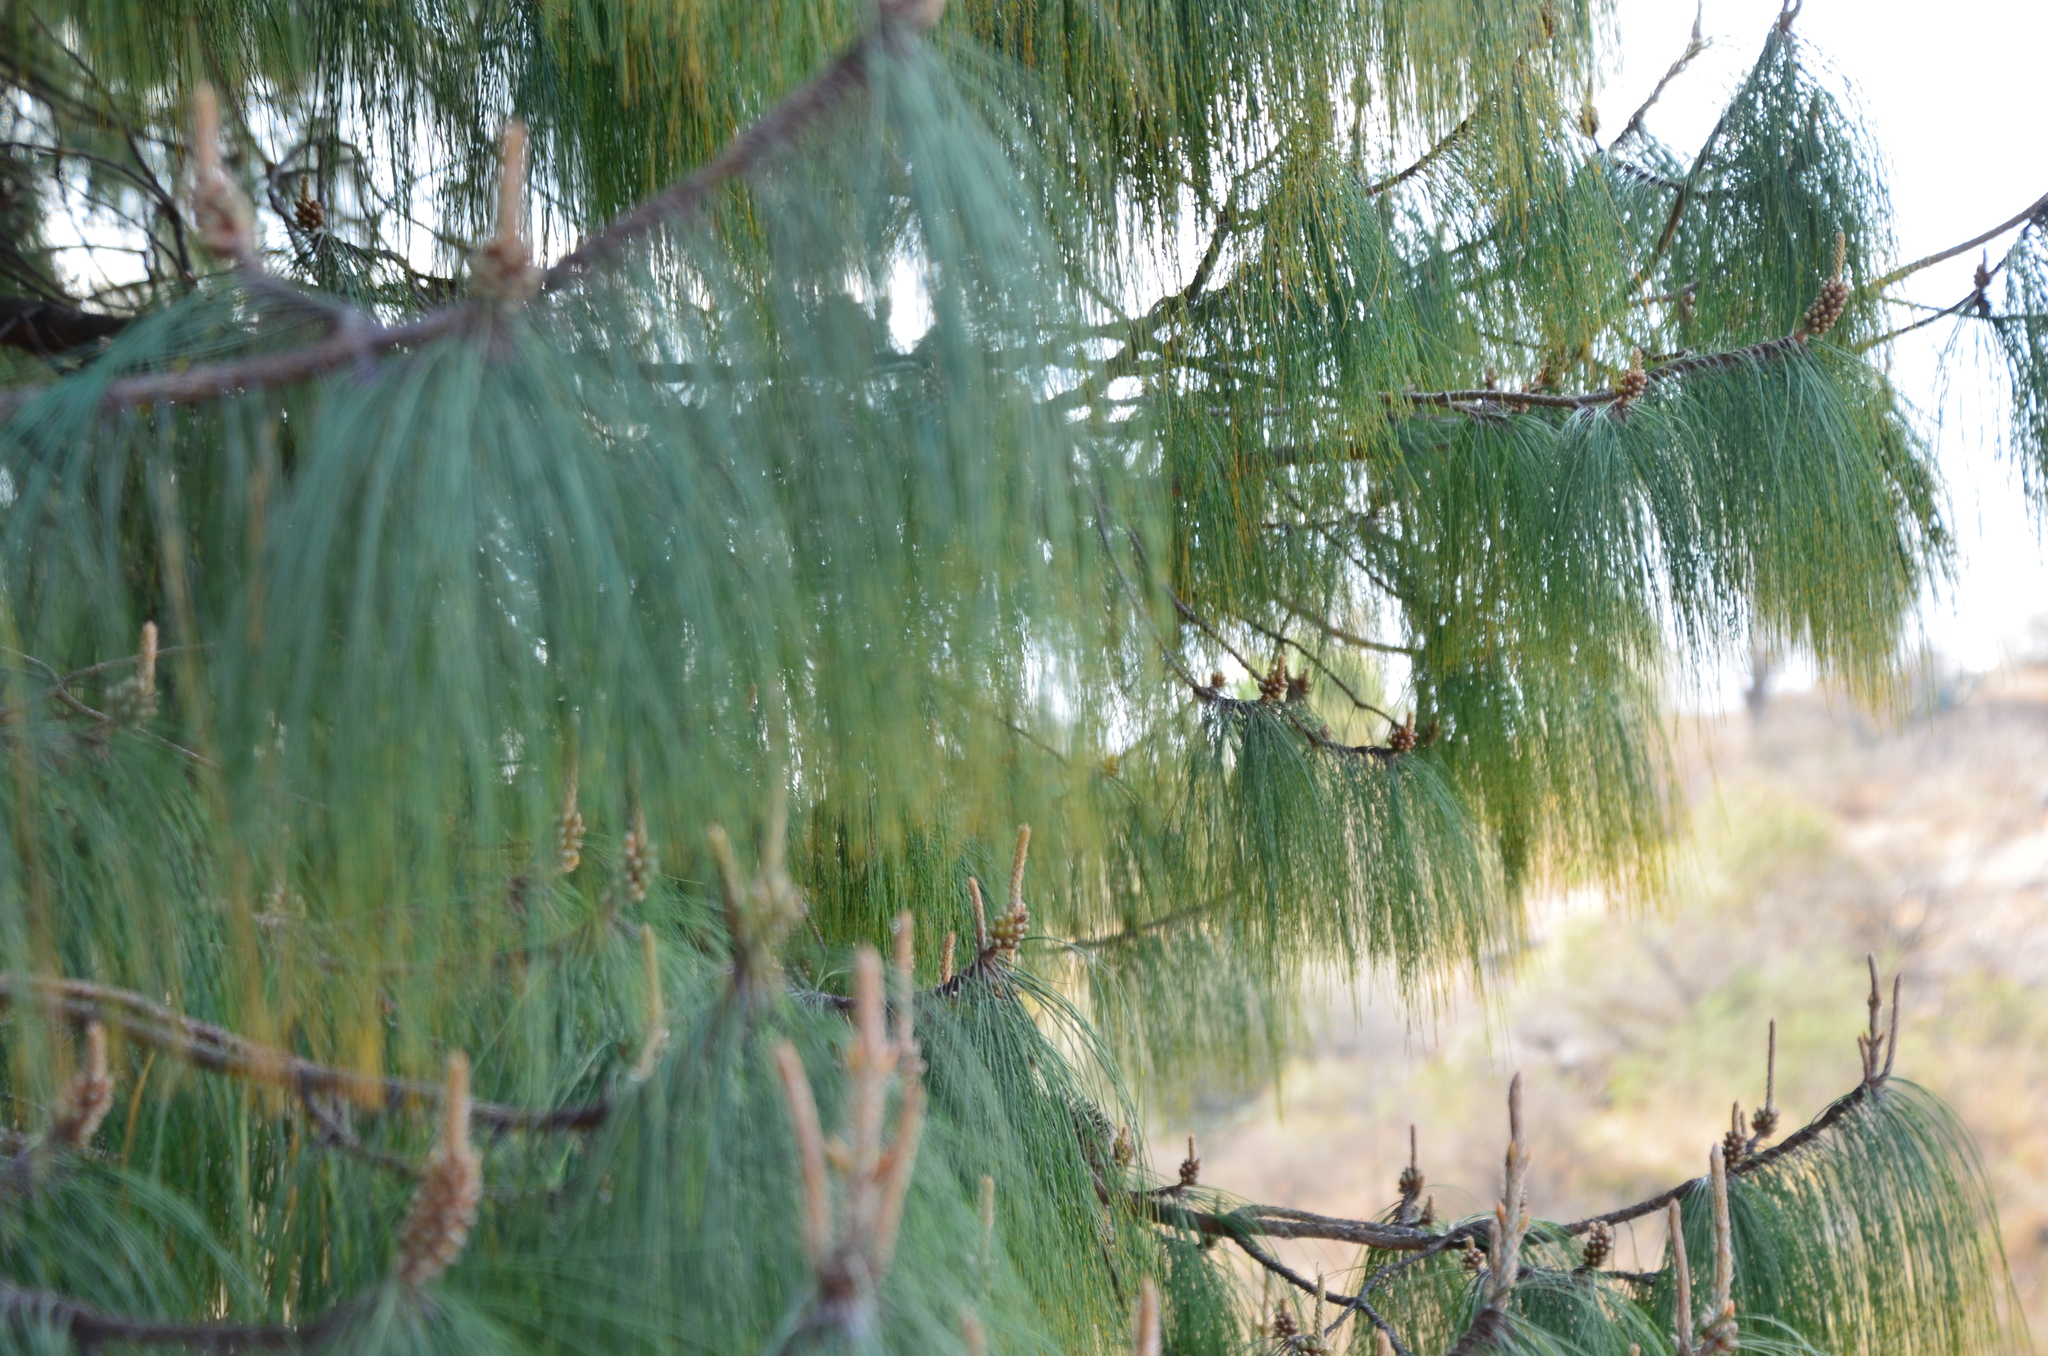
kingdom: Plantae
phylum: Tracheophyta
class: Pinopsida
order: Pinales
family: Pinaceae
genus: Pinus
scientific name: Pinus patula
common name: Mexican weeping pine
